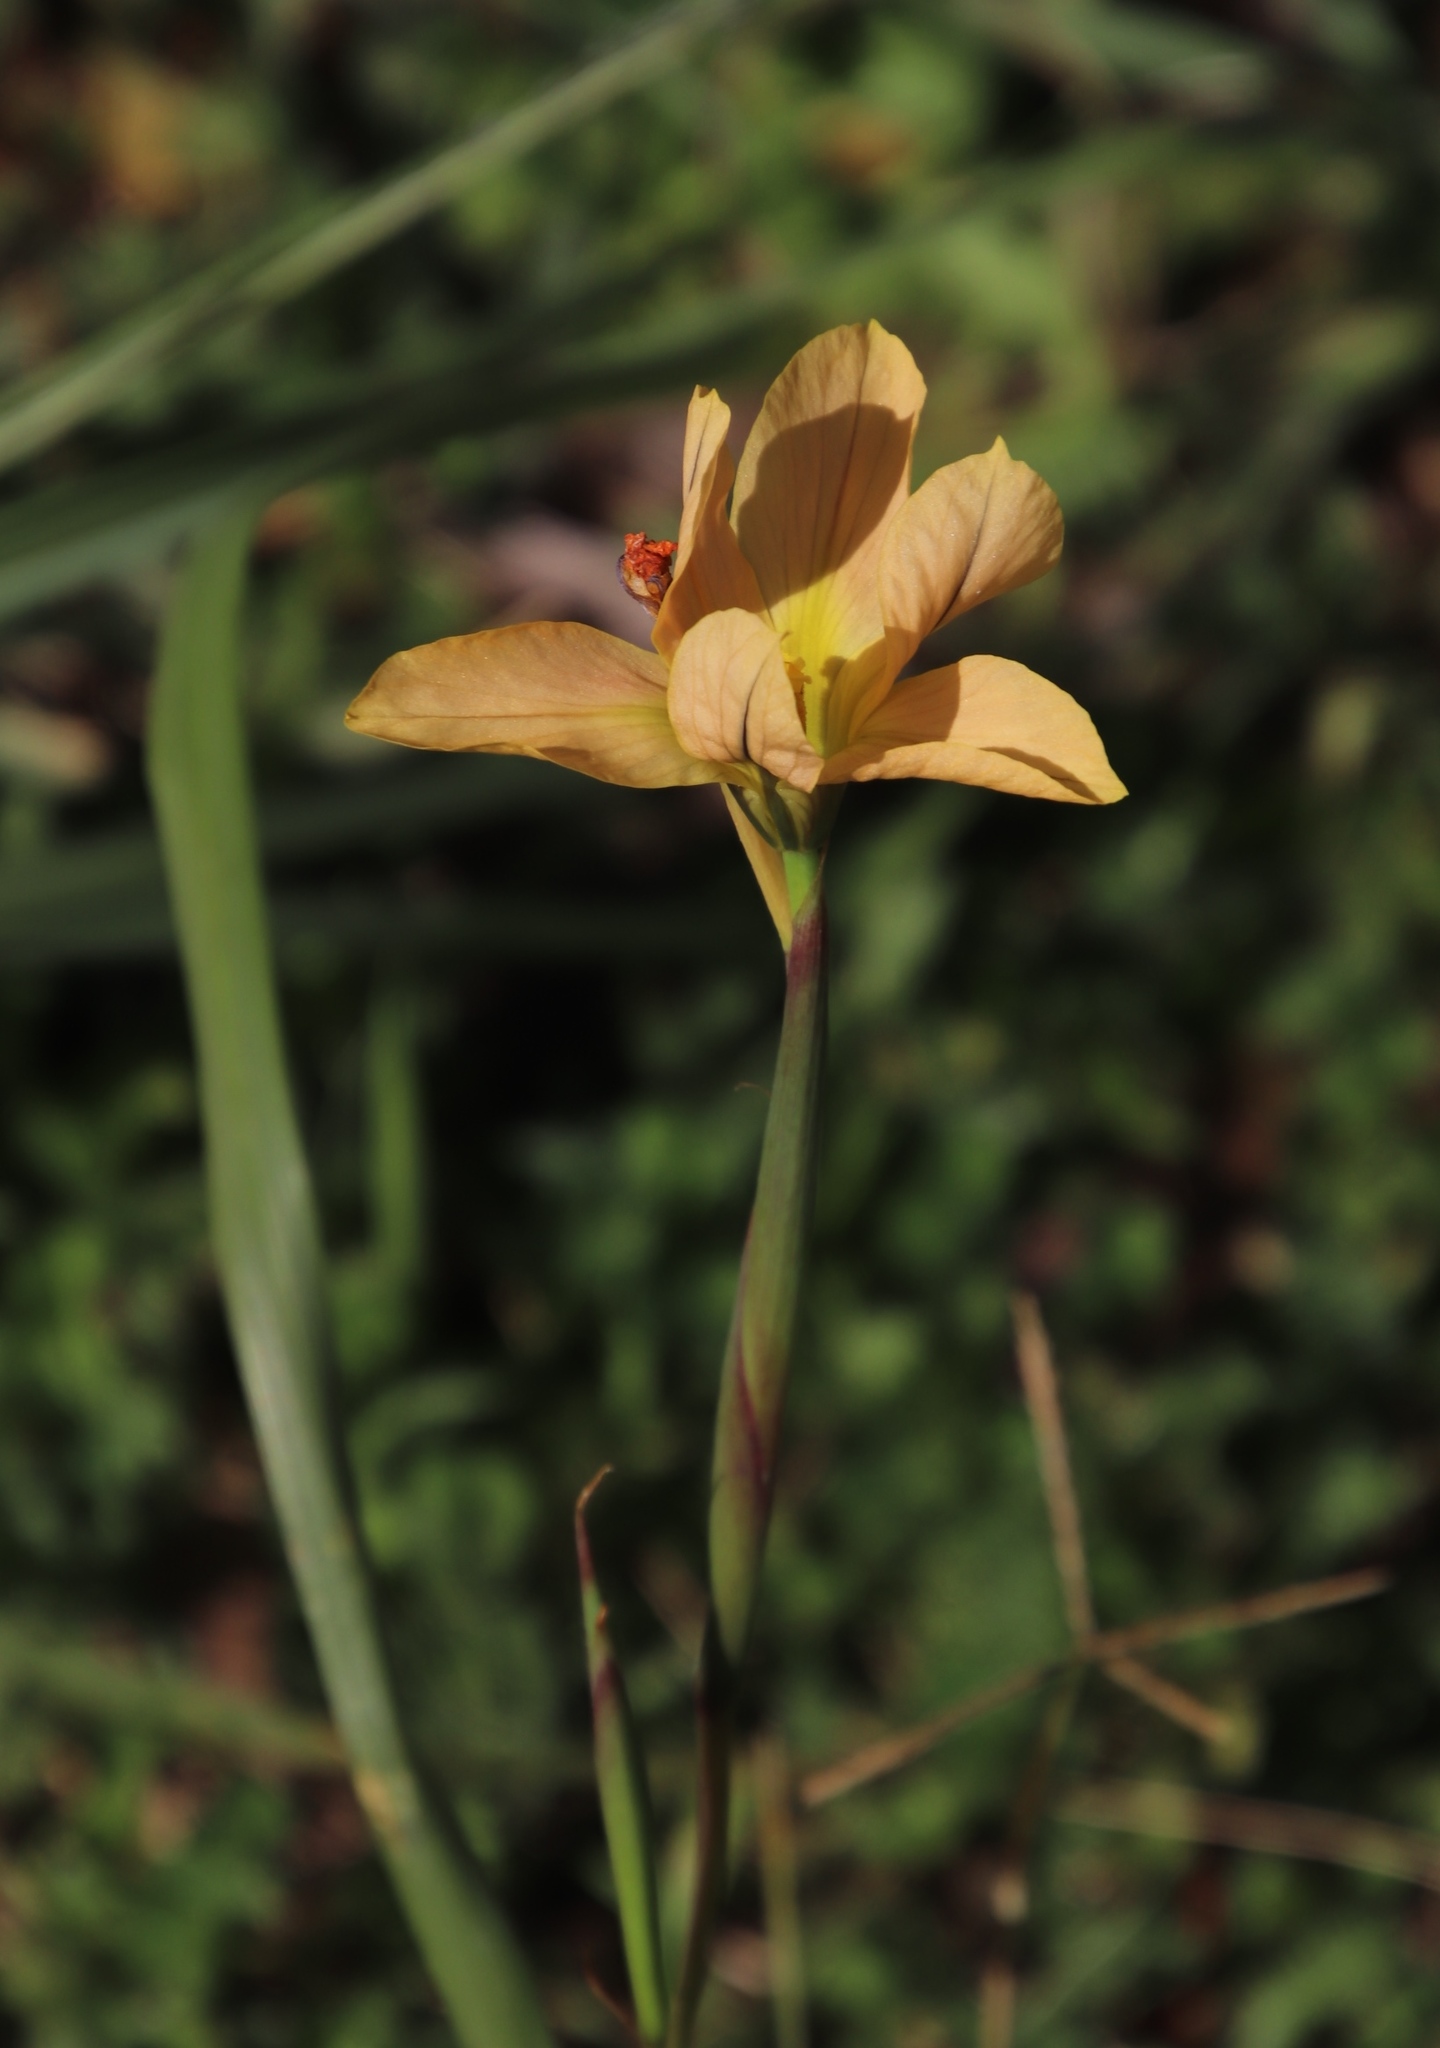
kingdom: Plantae
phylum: Tracheophyta
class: Liliopsida
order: Asparagales
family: Iridaceae
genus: Moraea
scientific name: Moraea flaccida
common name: One-leaf cape-tulip
